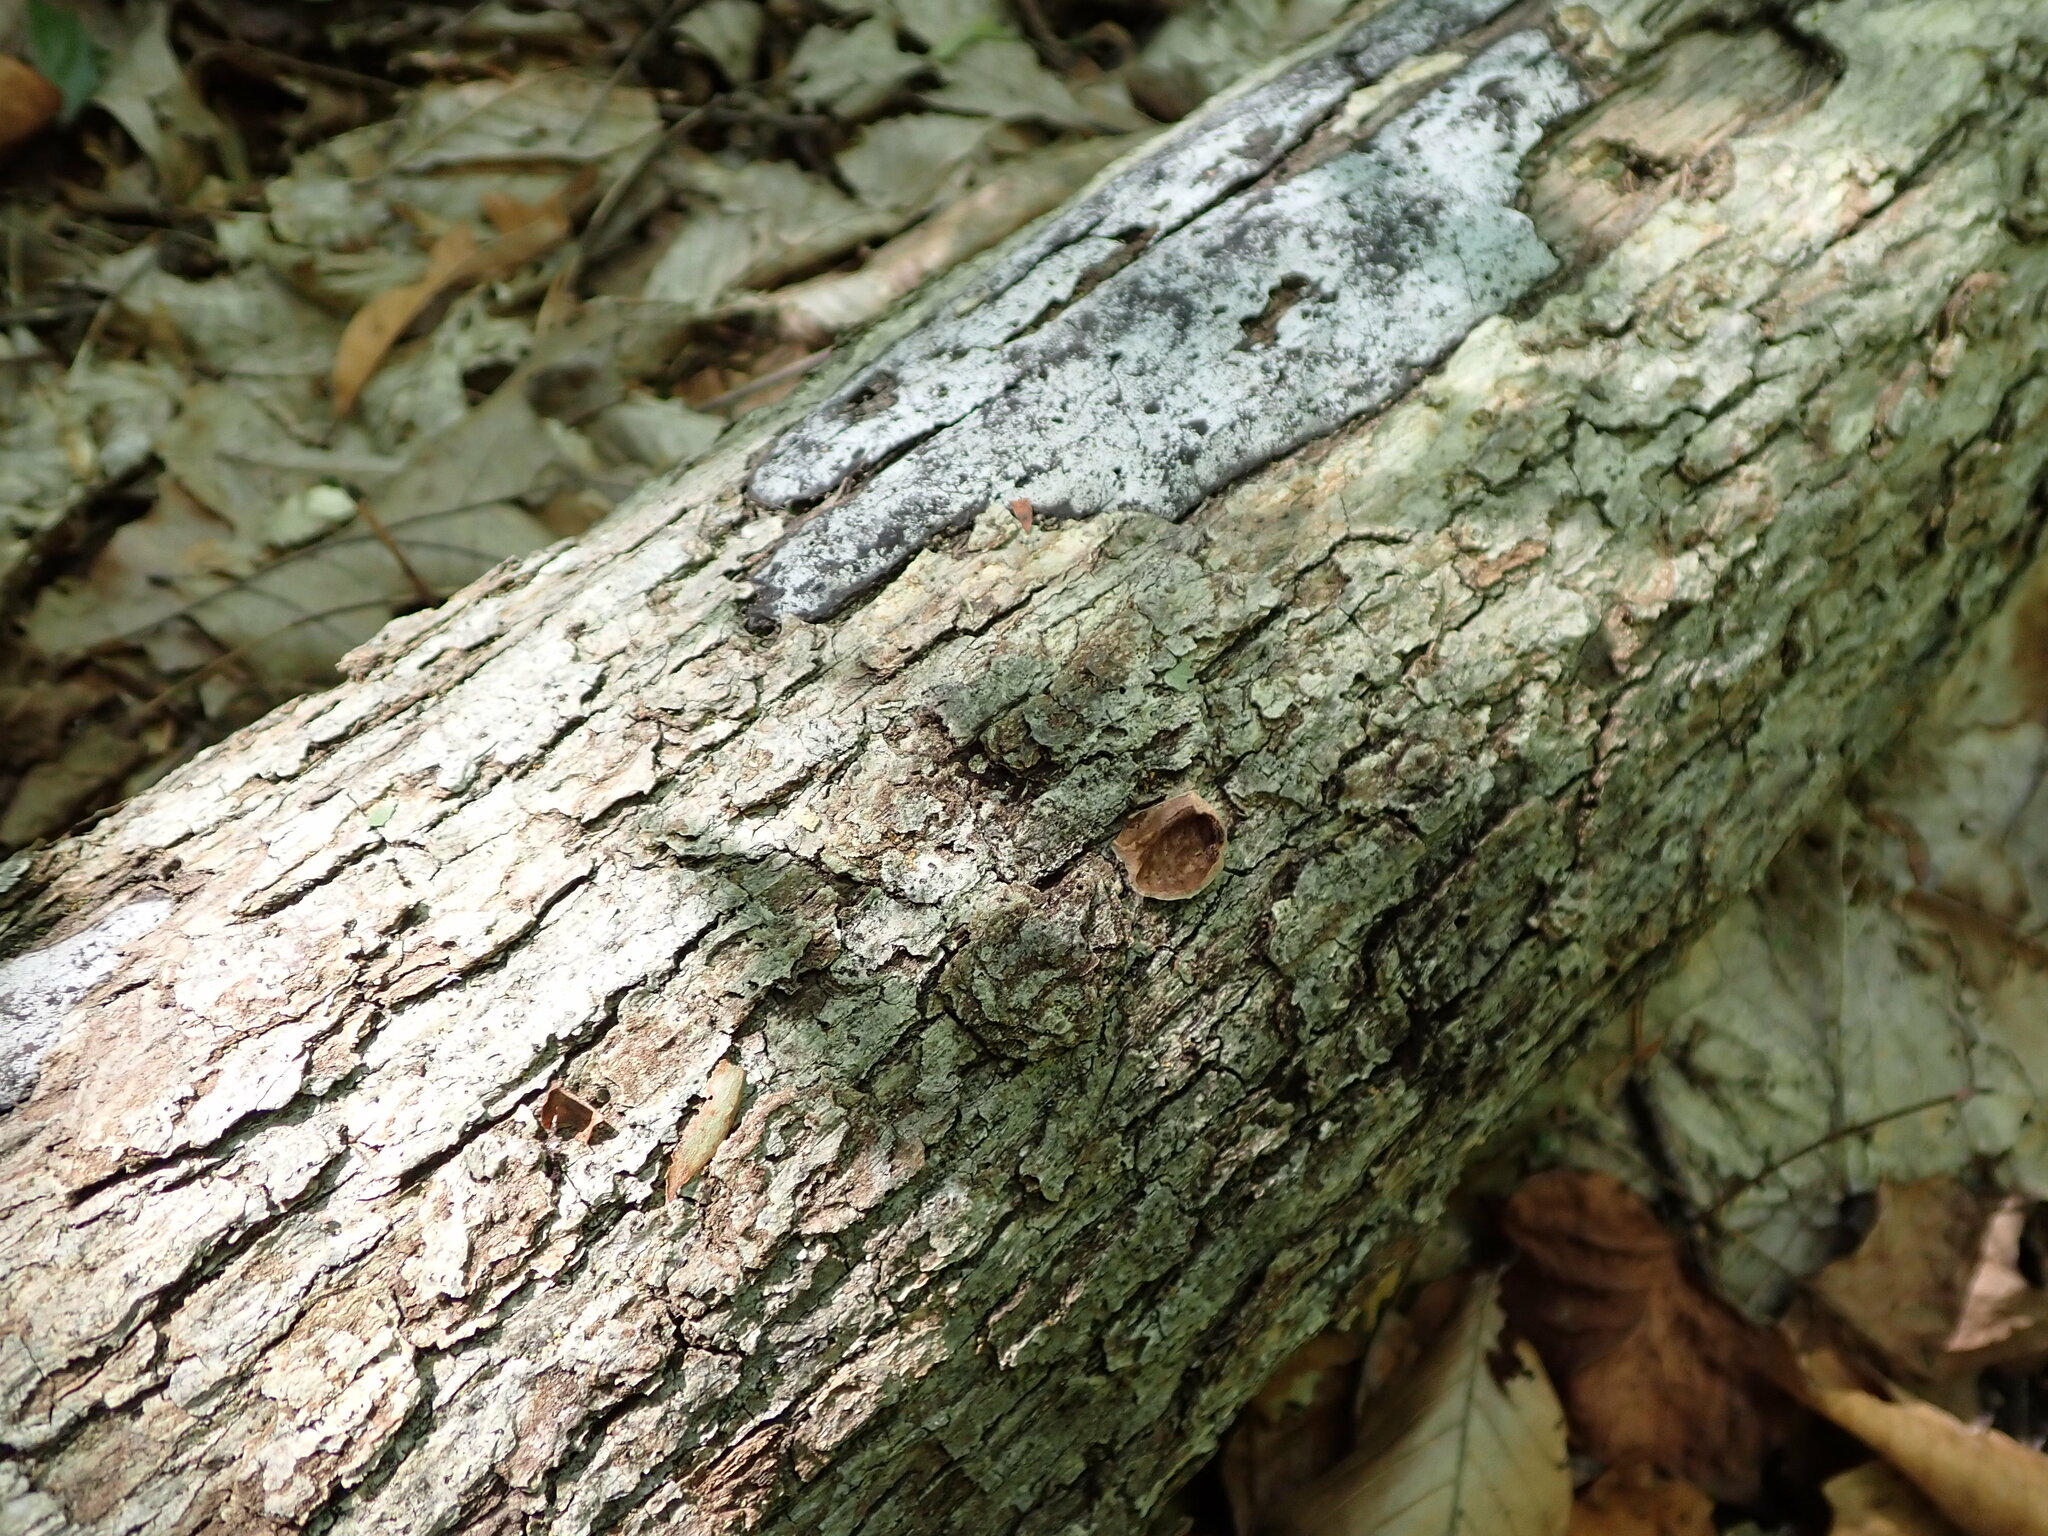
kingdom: Fungi
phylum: Ascomycota
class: Sordariomycetes
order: Xylariales
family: Graphostromataceae
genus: Biscogniauxia
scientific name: Biscogniauxia atropunctata
